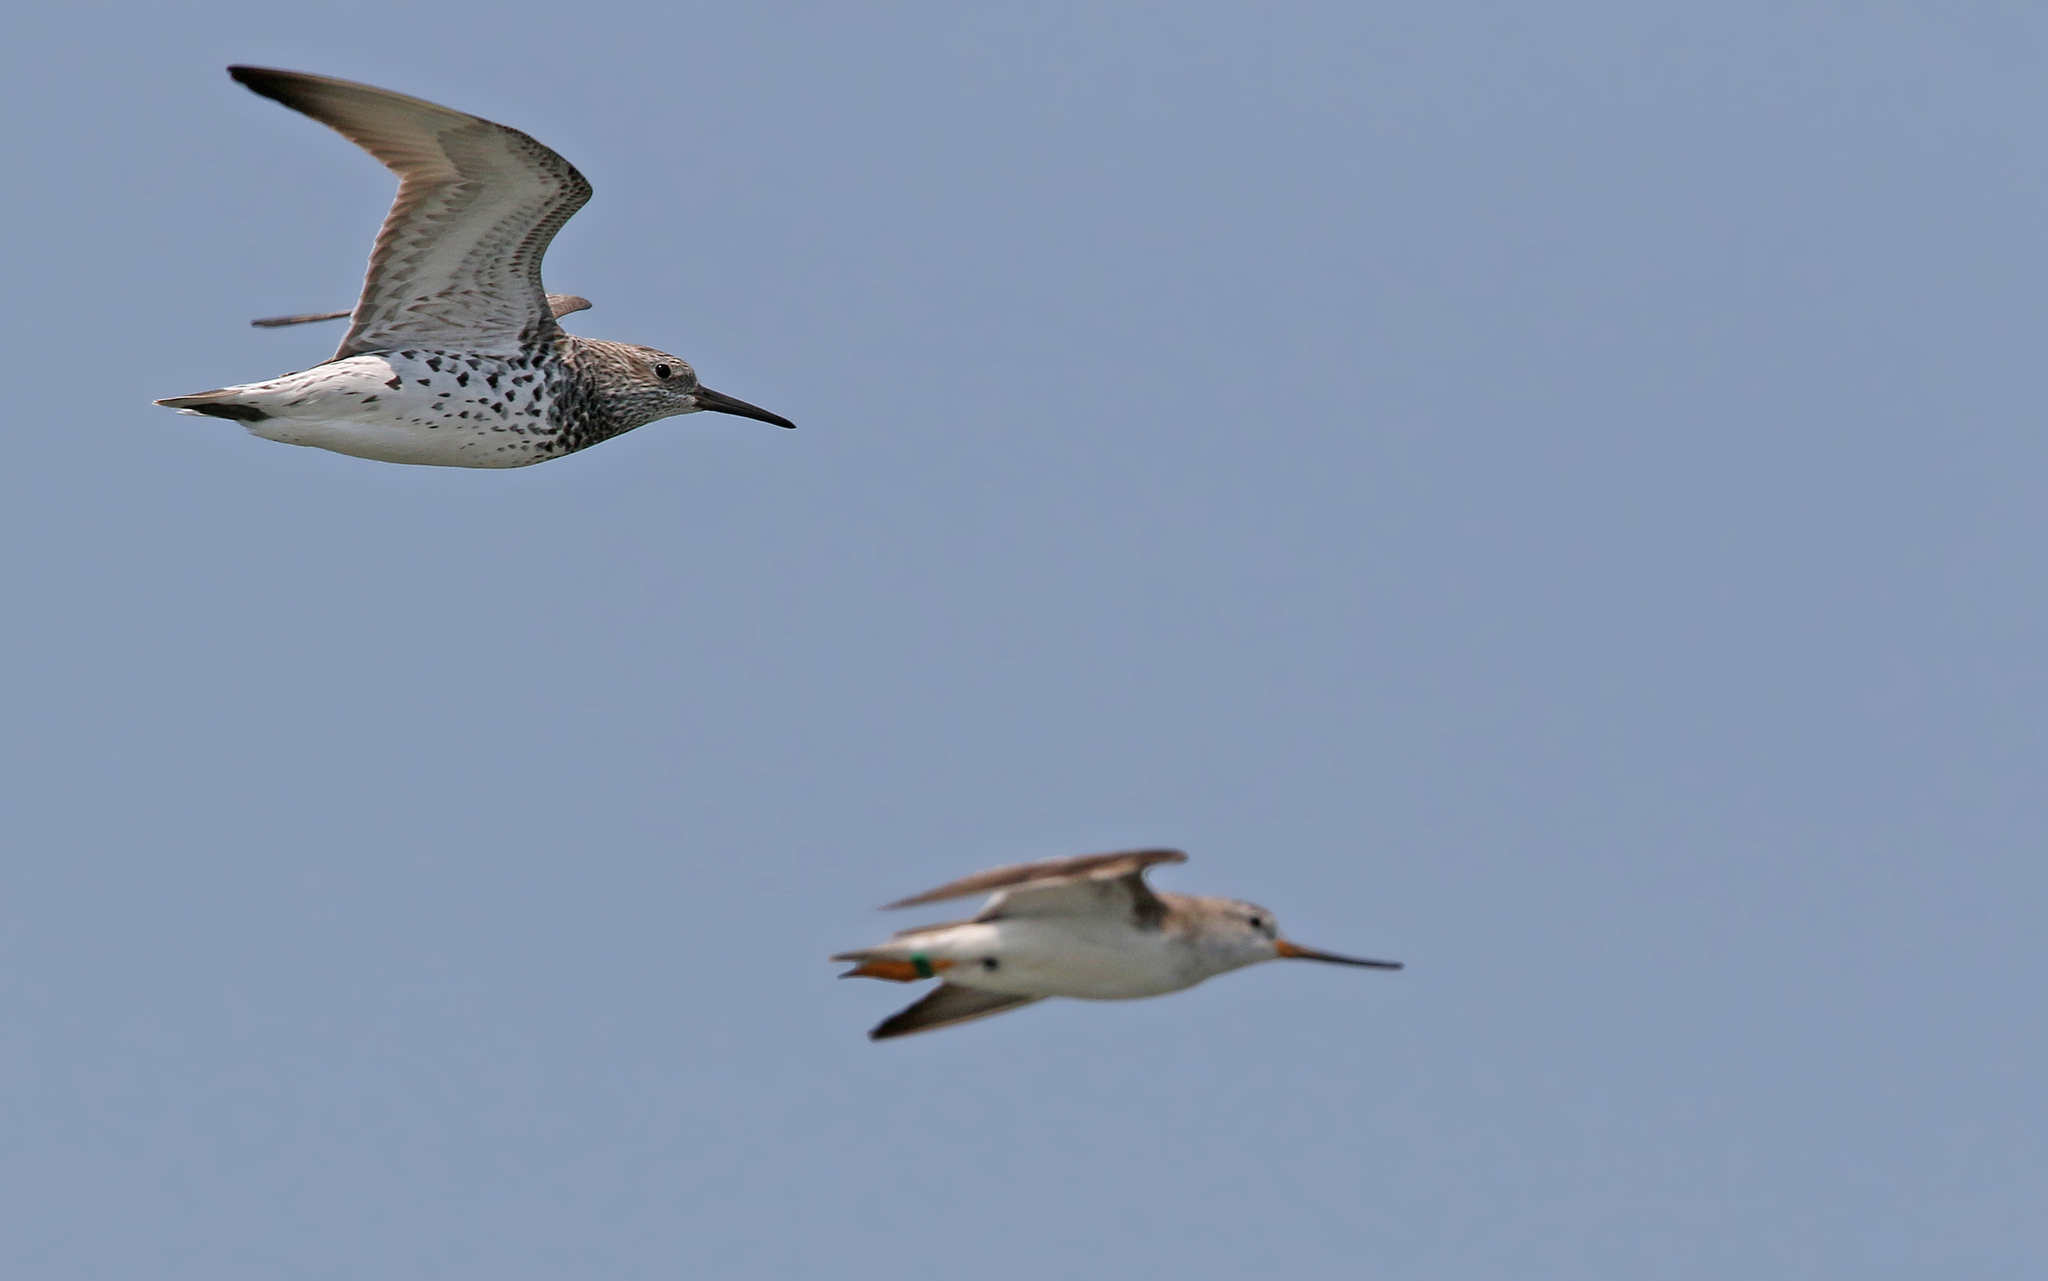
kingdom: Animalia
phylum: Chordata
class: Aves
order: Charadriiformes
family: Scolopacidae
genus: Calidris
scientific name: Calidris tenuirostris
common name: Great knot
